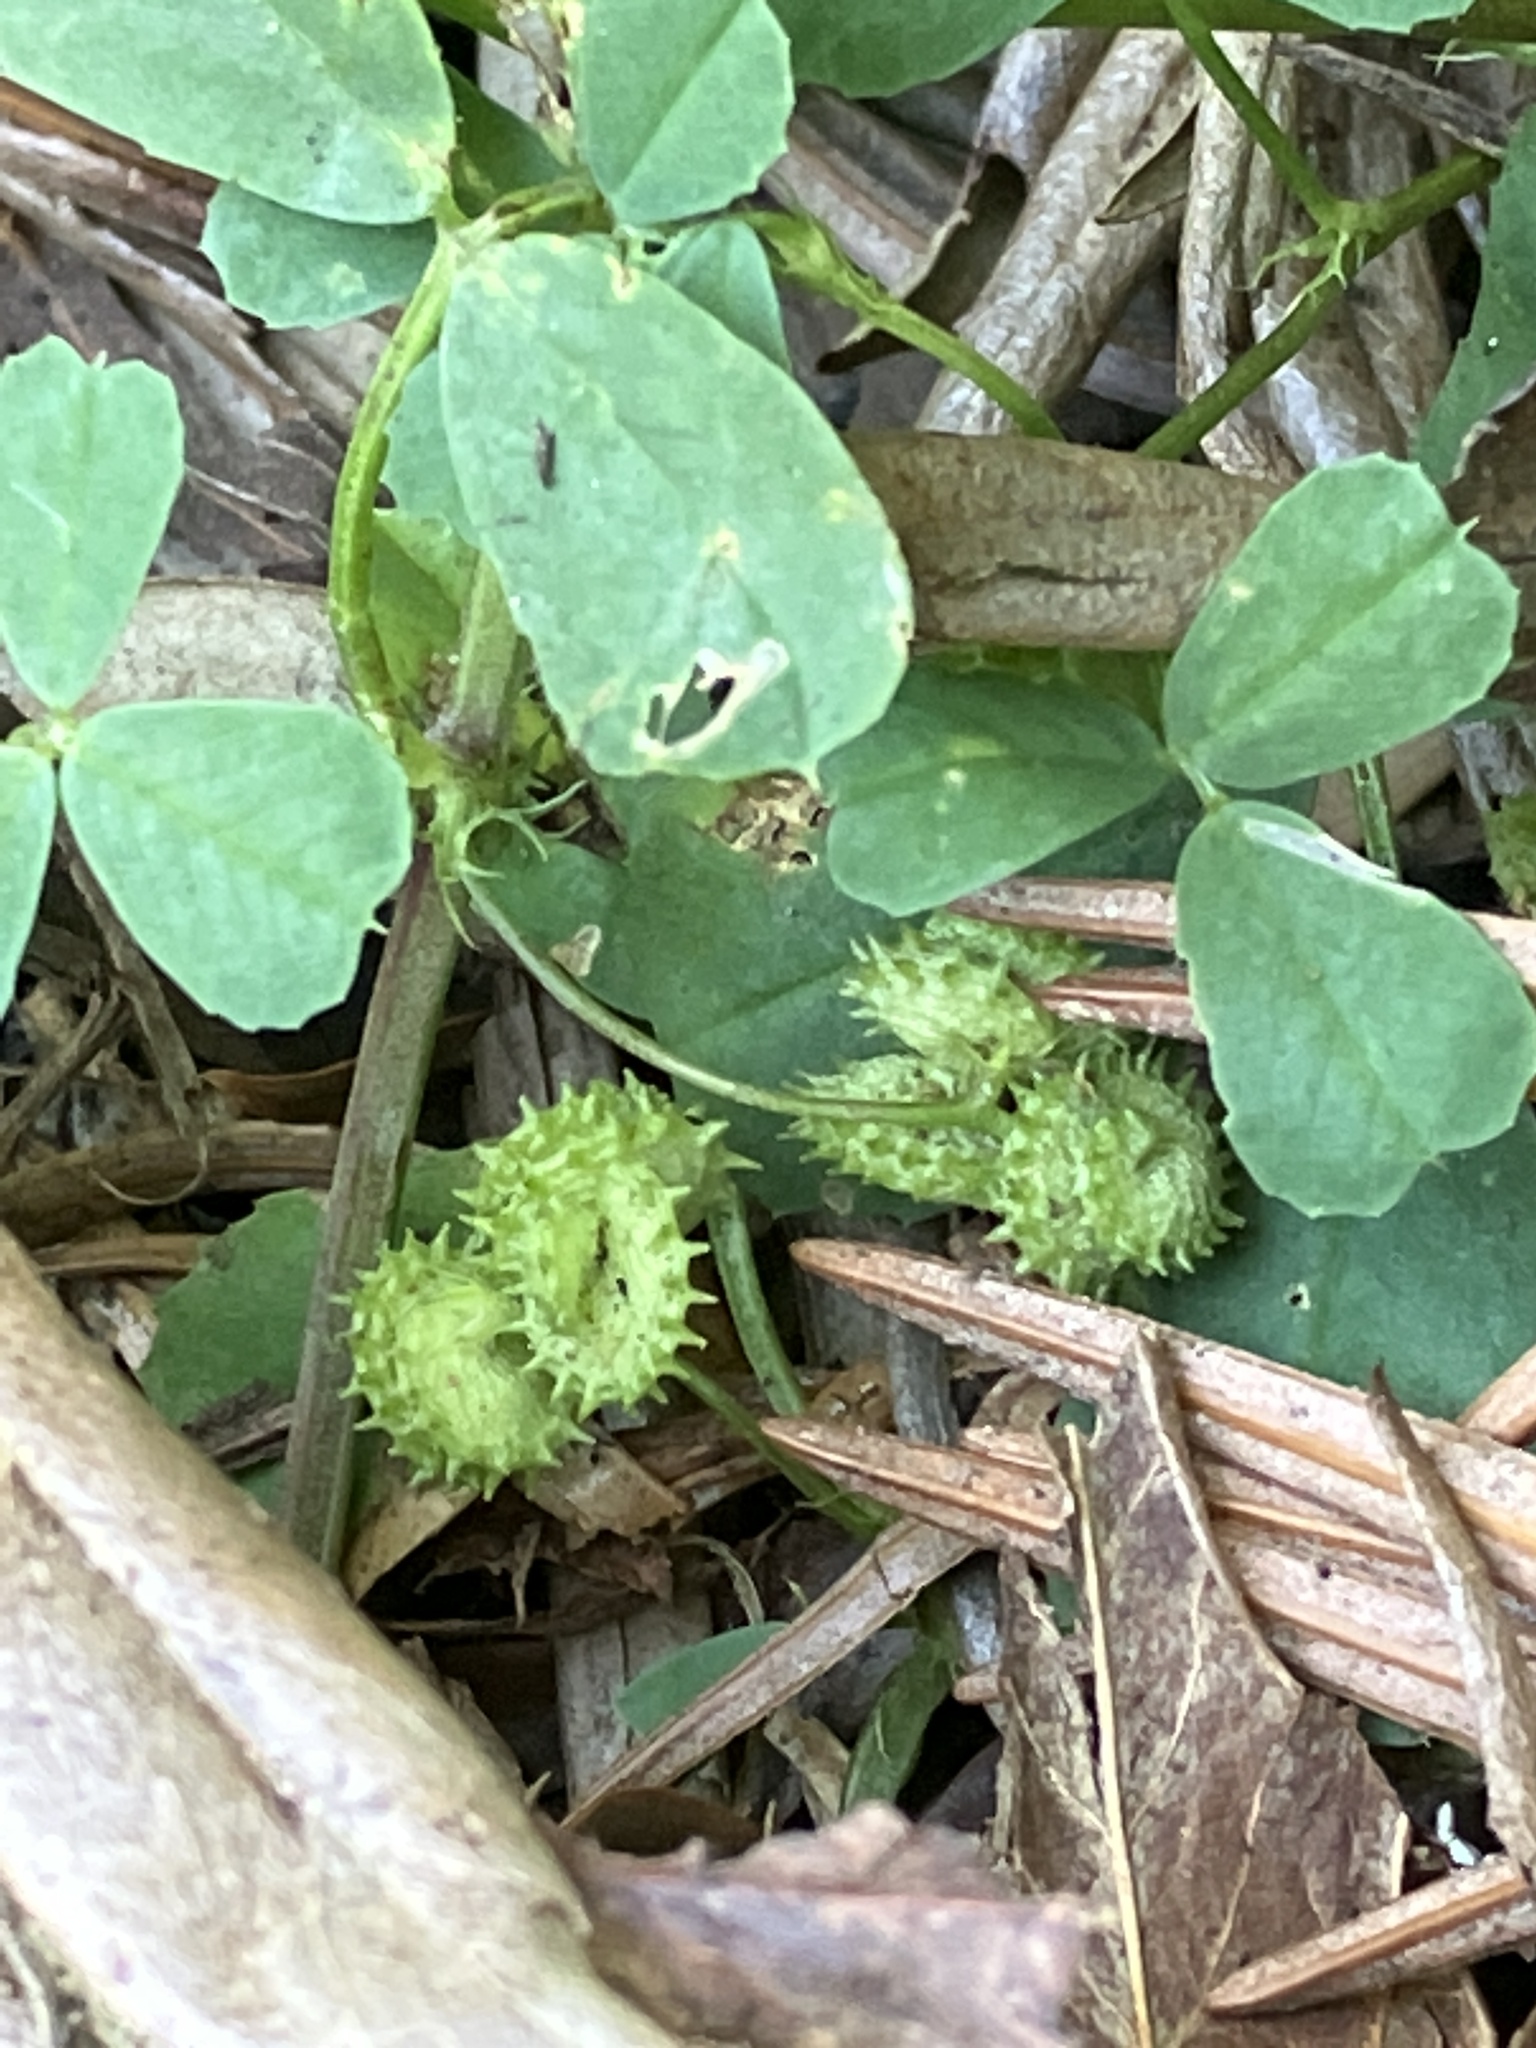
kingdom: Plantae
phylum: Tracheophyta
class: Magnoliopsida
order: Fabales
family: Fabaceae
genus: Medicago
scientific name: Medicago polymorpha
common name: Burclover
